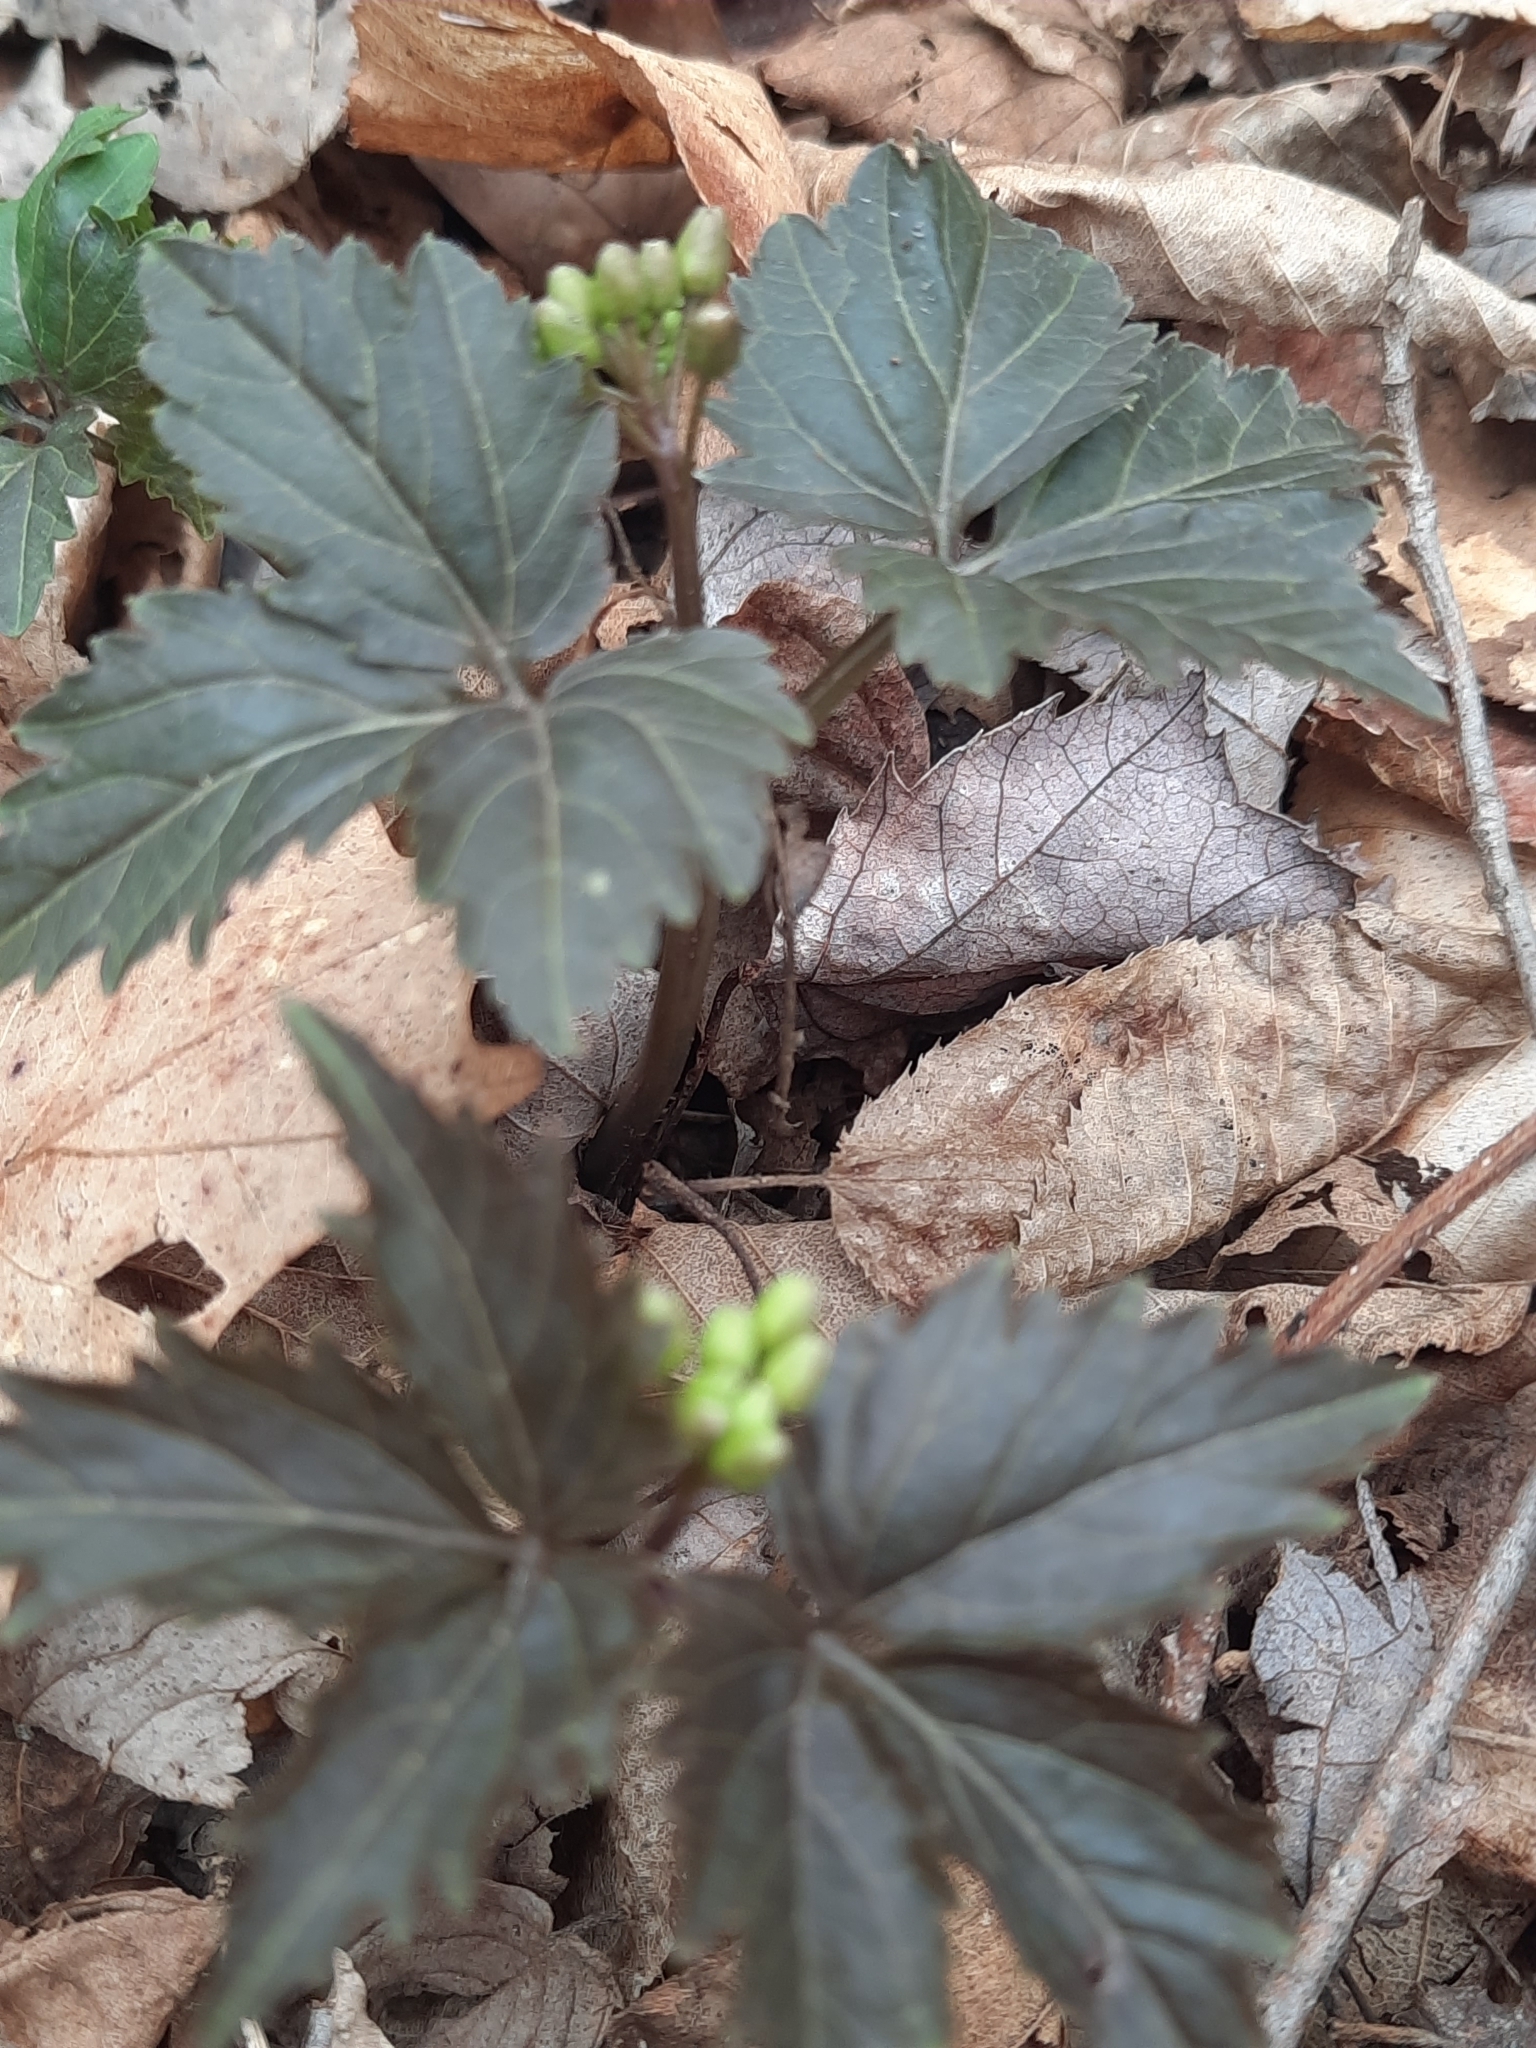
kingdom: Plantae
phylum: Tracheophyta
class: Magnoliopsida
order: Brassicales
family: Brassicaceae
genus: Cardamine
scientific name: Cardamine diphylla
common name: Broad-leaved toothwort
